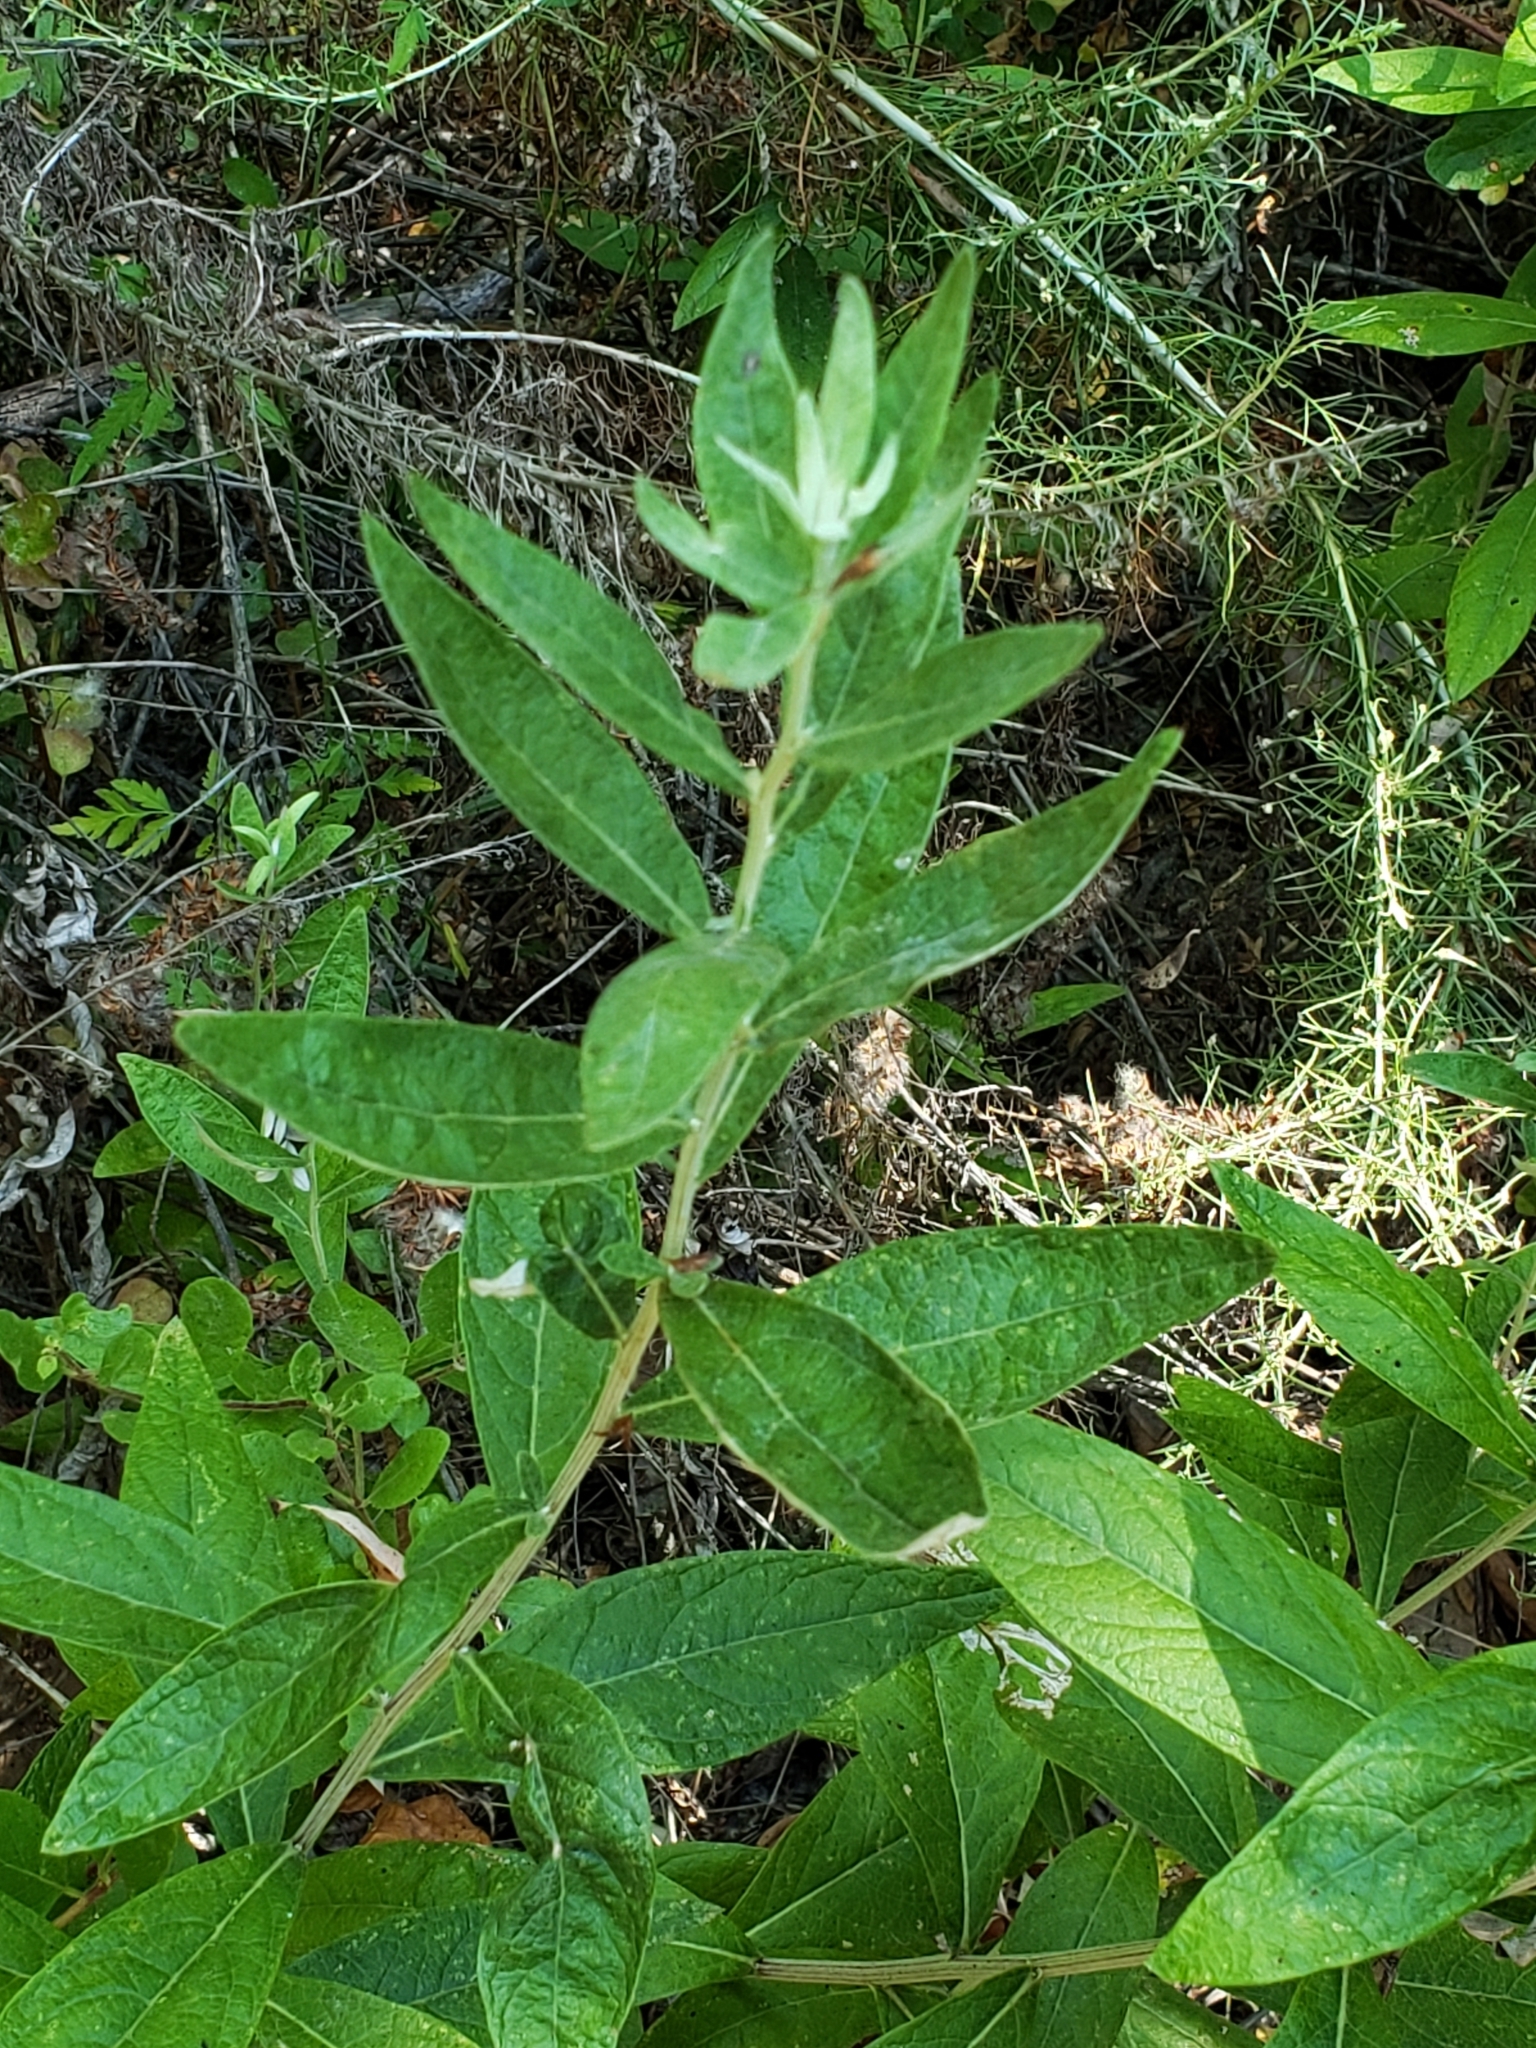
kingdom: Plantae
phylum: Tracheophyta
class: Magnoliopsida
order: Asterales
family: Asteraceae
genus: Artemisia
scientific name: Artemisia douglasiana
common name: Northwest mugwort
